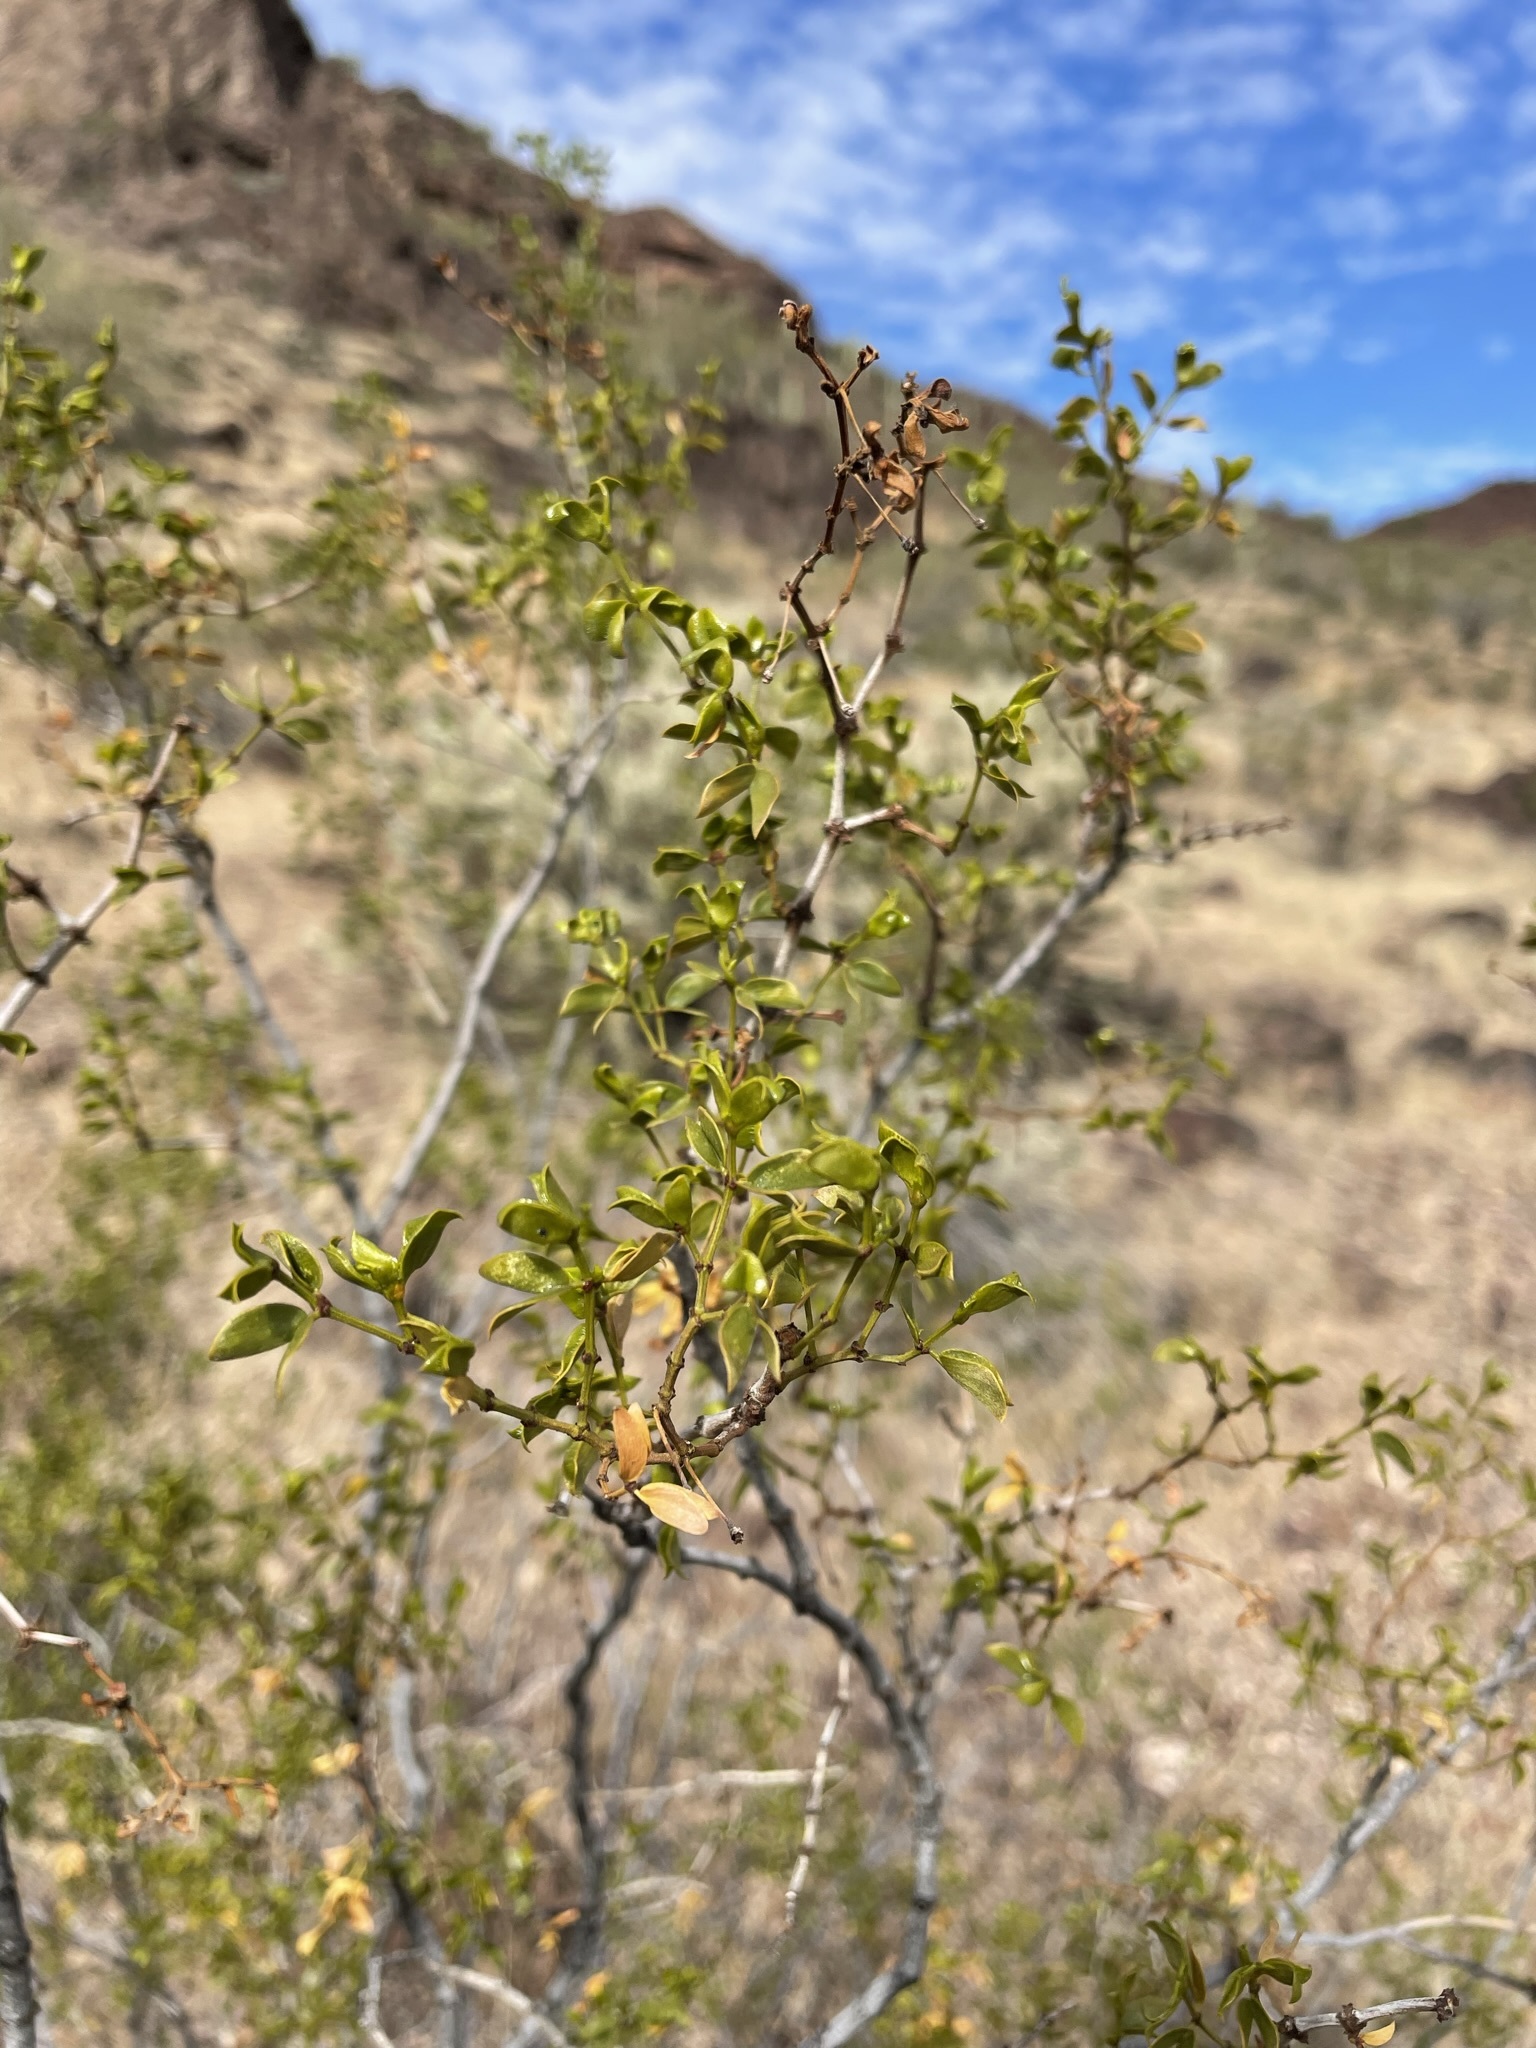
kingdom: Plantae
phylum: Tracheophyta
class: Magnoliopsida
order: Zygophyllales
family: Zygophyllaceae
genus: Larrea
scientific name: Larrea tridentata
